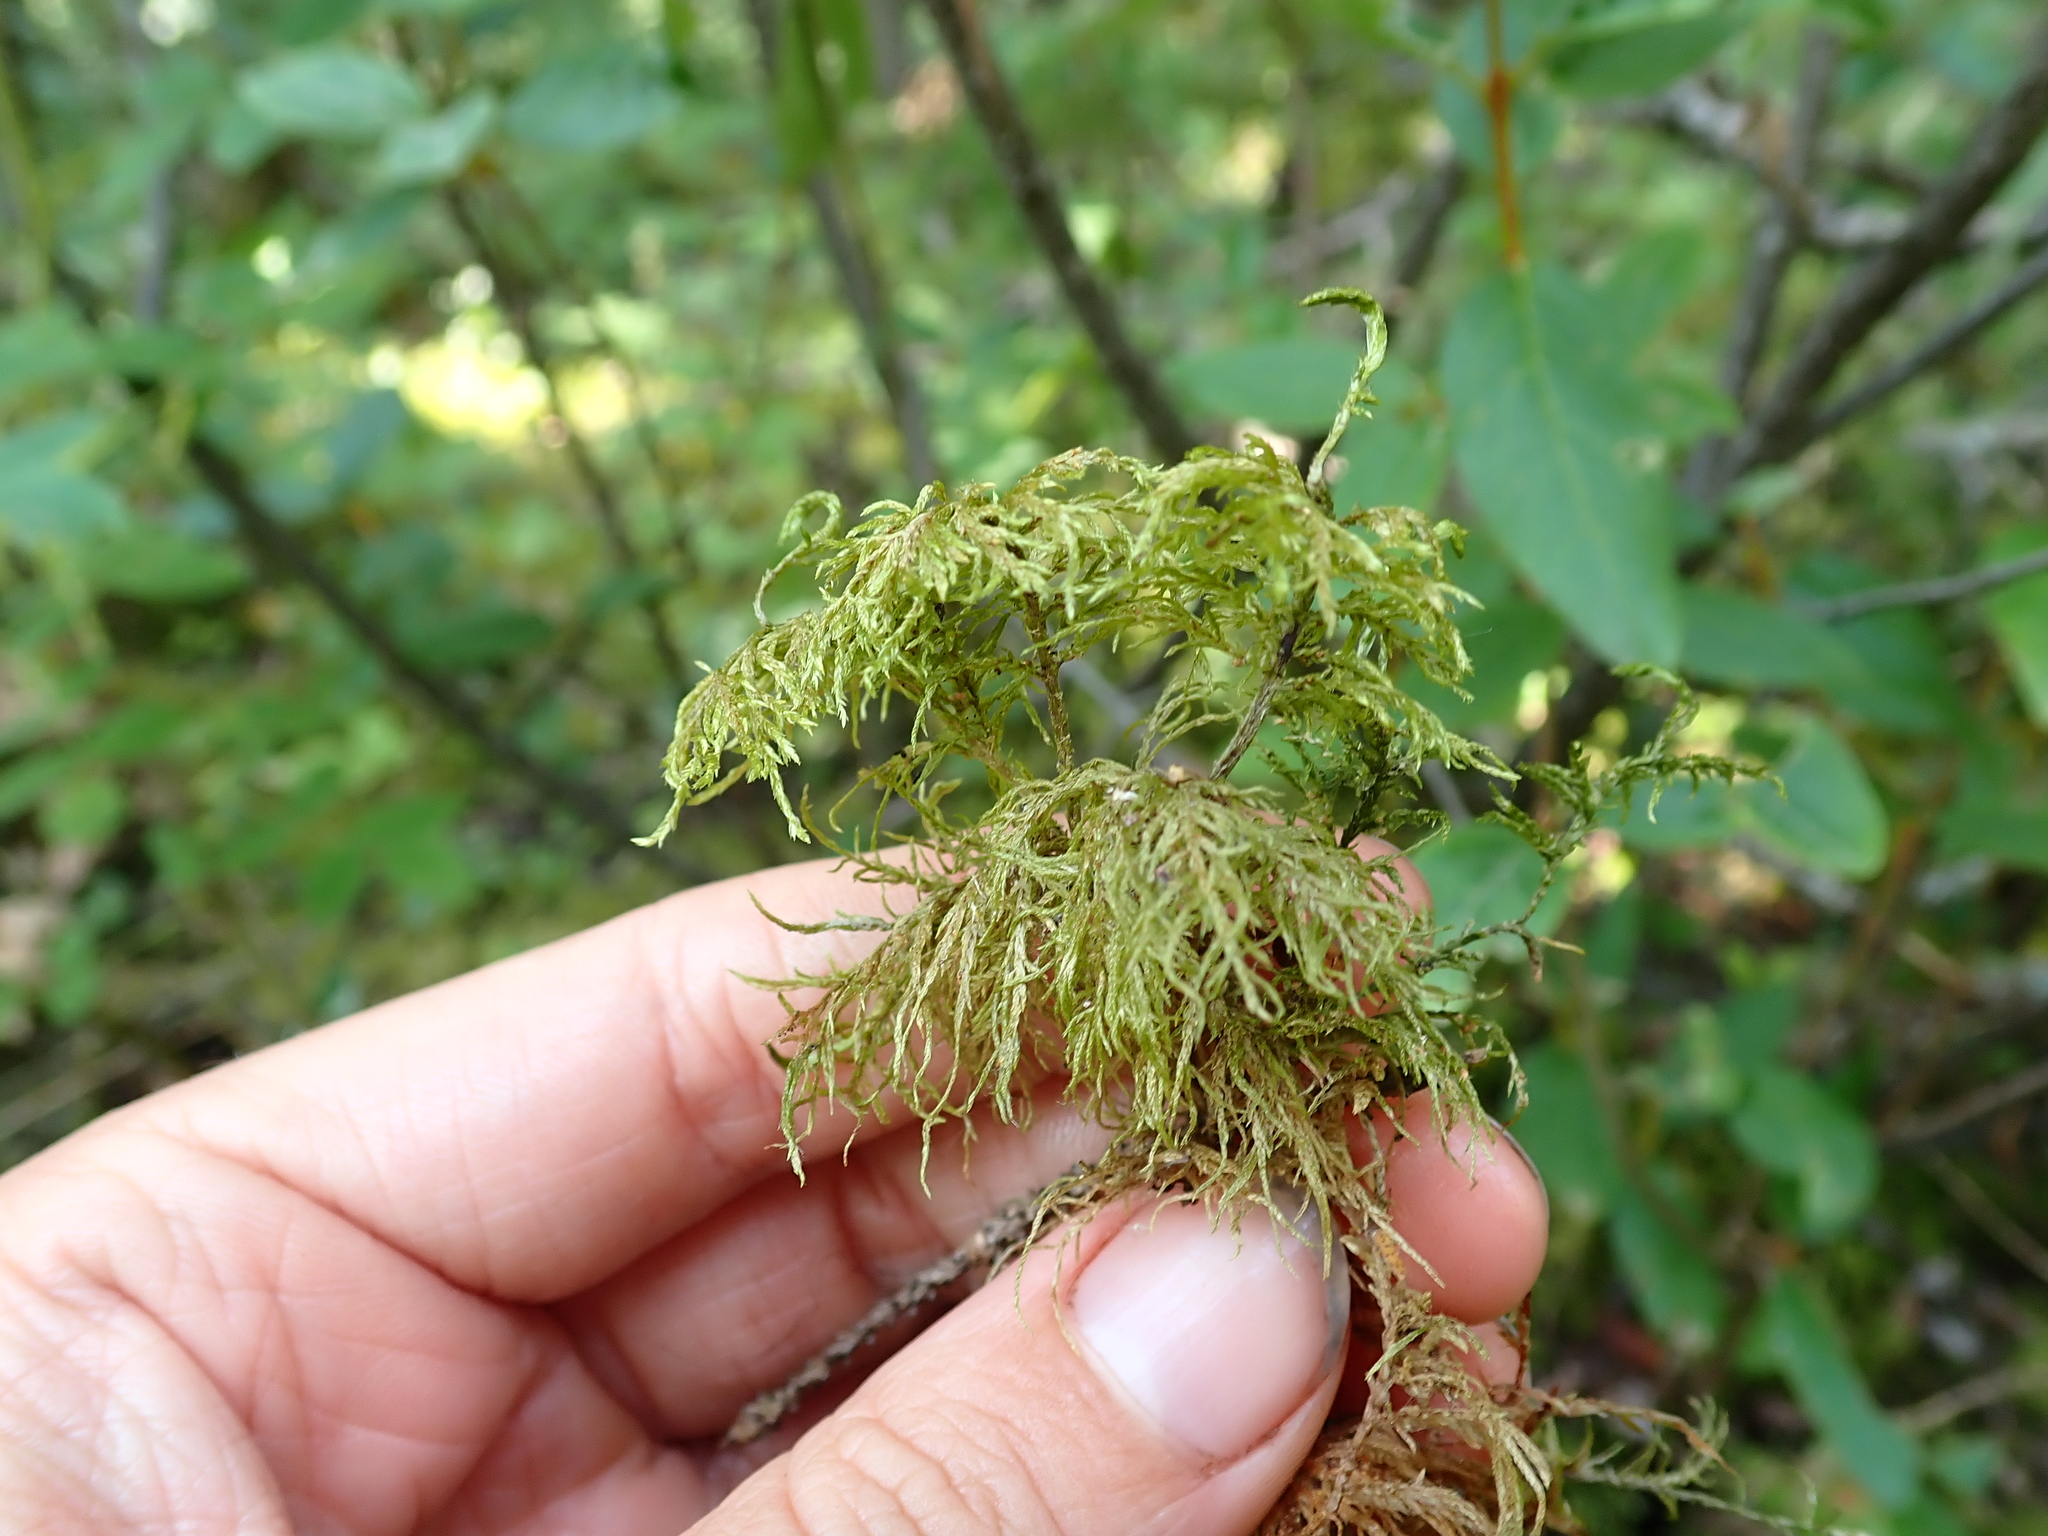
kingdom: Plantae
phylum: Bryophyta
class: Bryopsida
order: Hypnales
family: Hylocomiaceae
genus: Hylocomium
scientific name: Hylocomium splendens
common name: Stairstep moss
